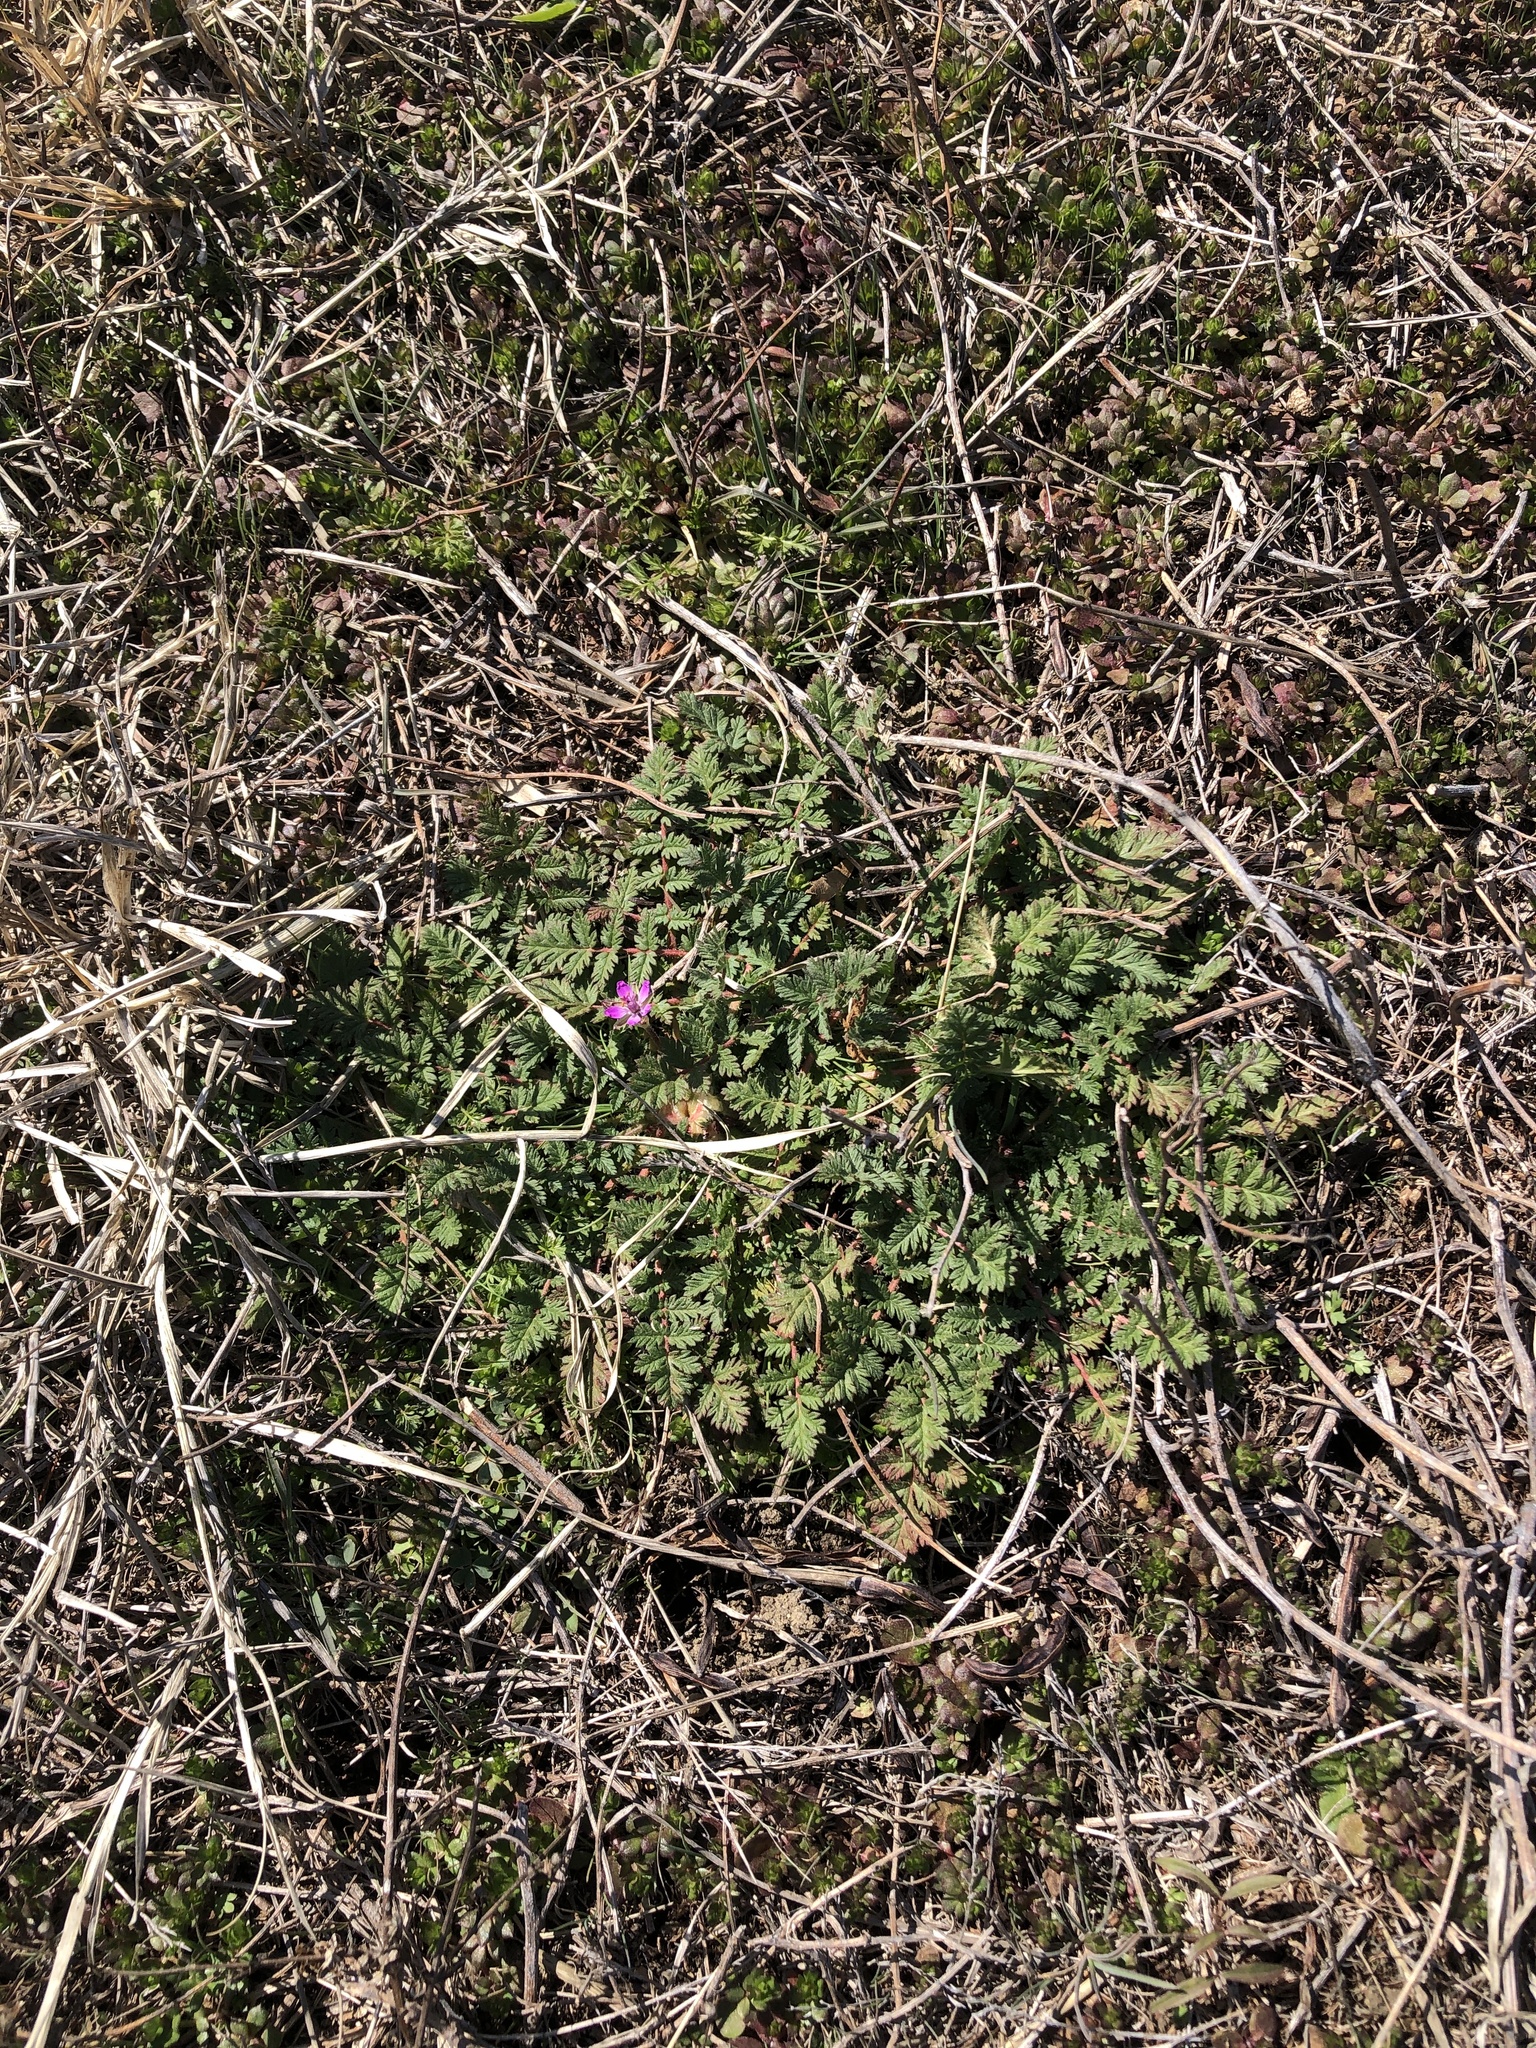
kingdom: Plantae
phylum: Tracheophyta
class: Magnoliopsida
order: Geraniales
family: Geraniaceae
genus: Erodium
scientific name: Erodium cicutarium
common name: Common stork's-bill
